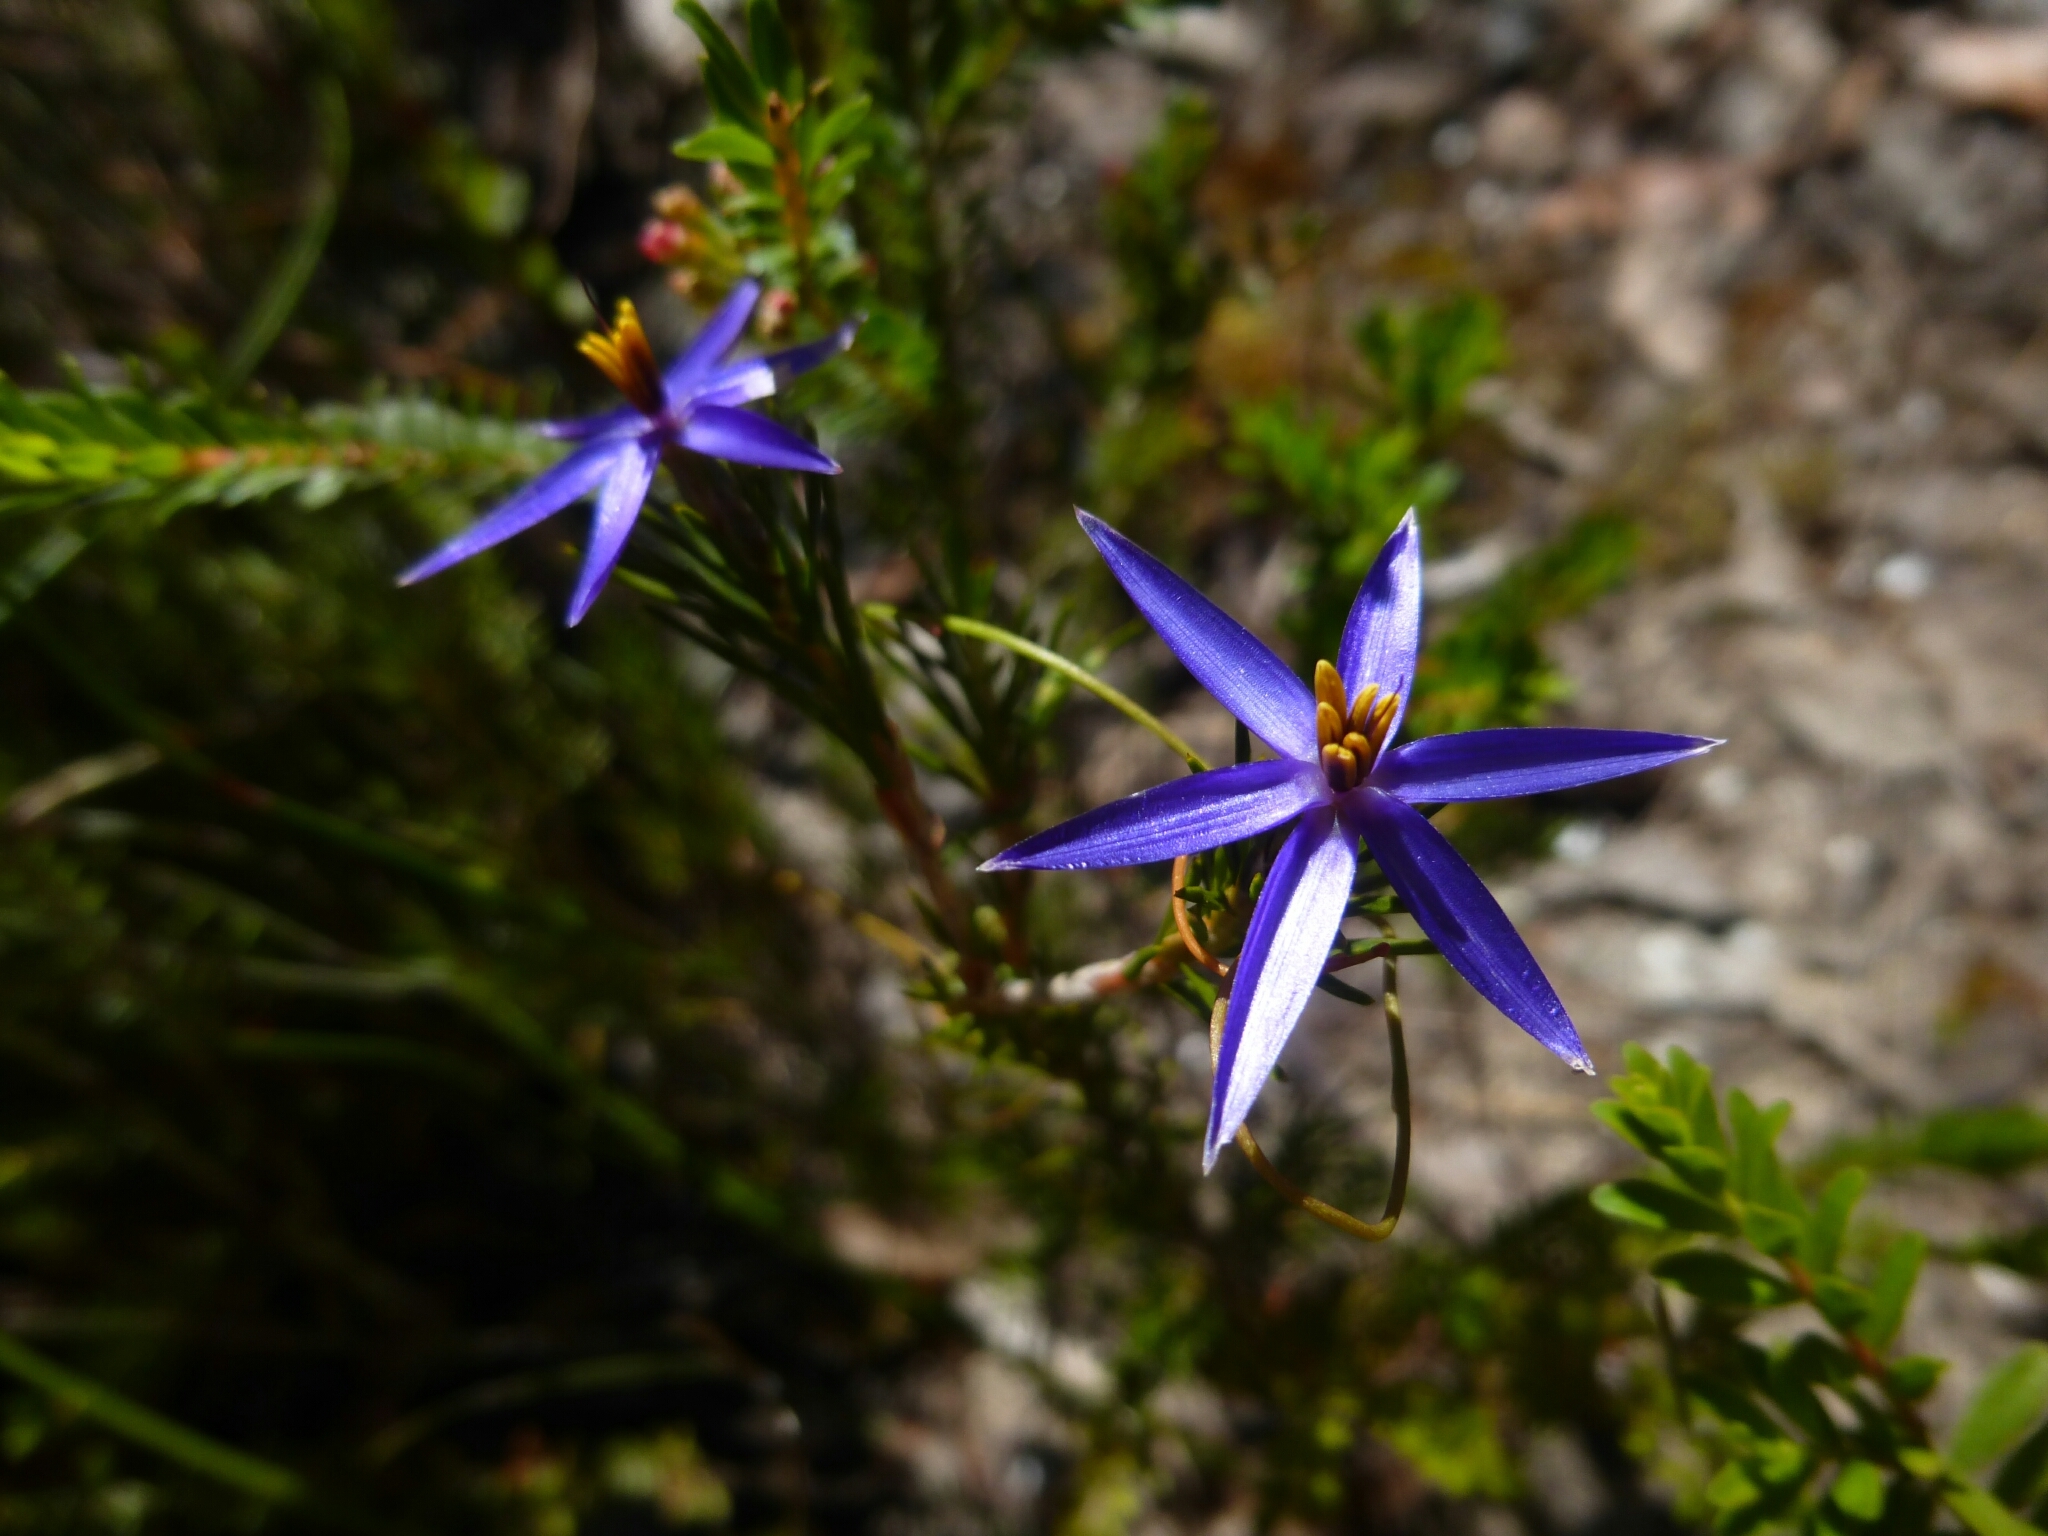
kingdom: Plantae
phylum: Tracheophyta
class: Liliopsida
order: Arecales
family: Dasypogonaceae
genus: Calectasia
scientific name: Calectasia intermedia
